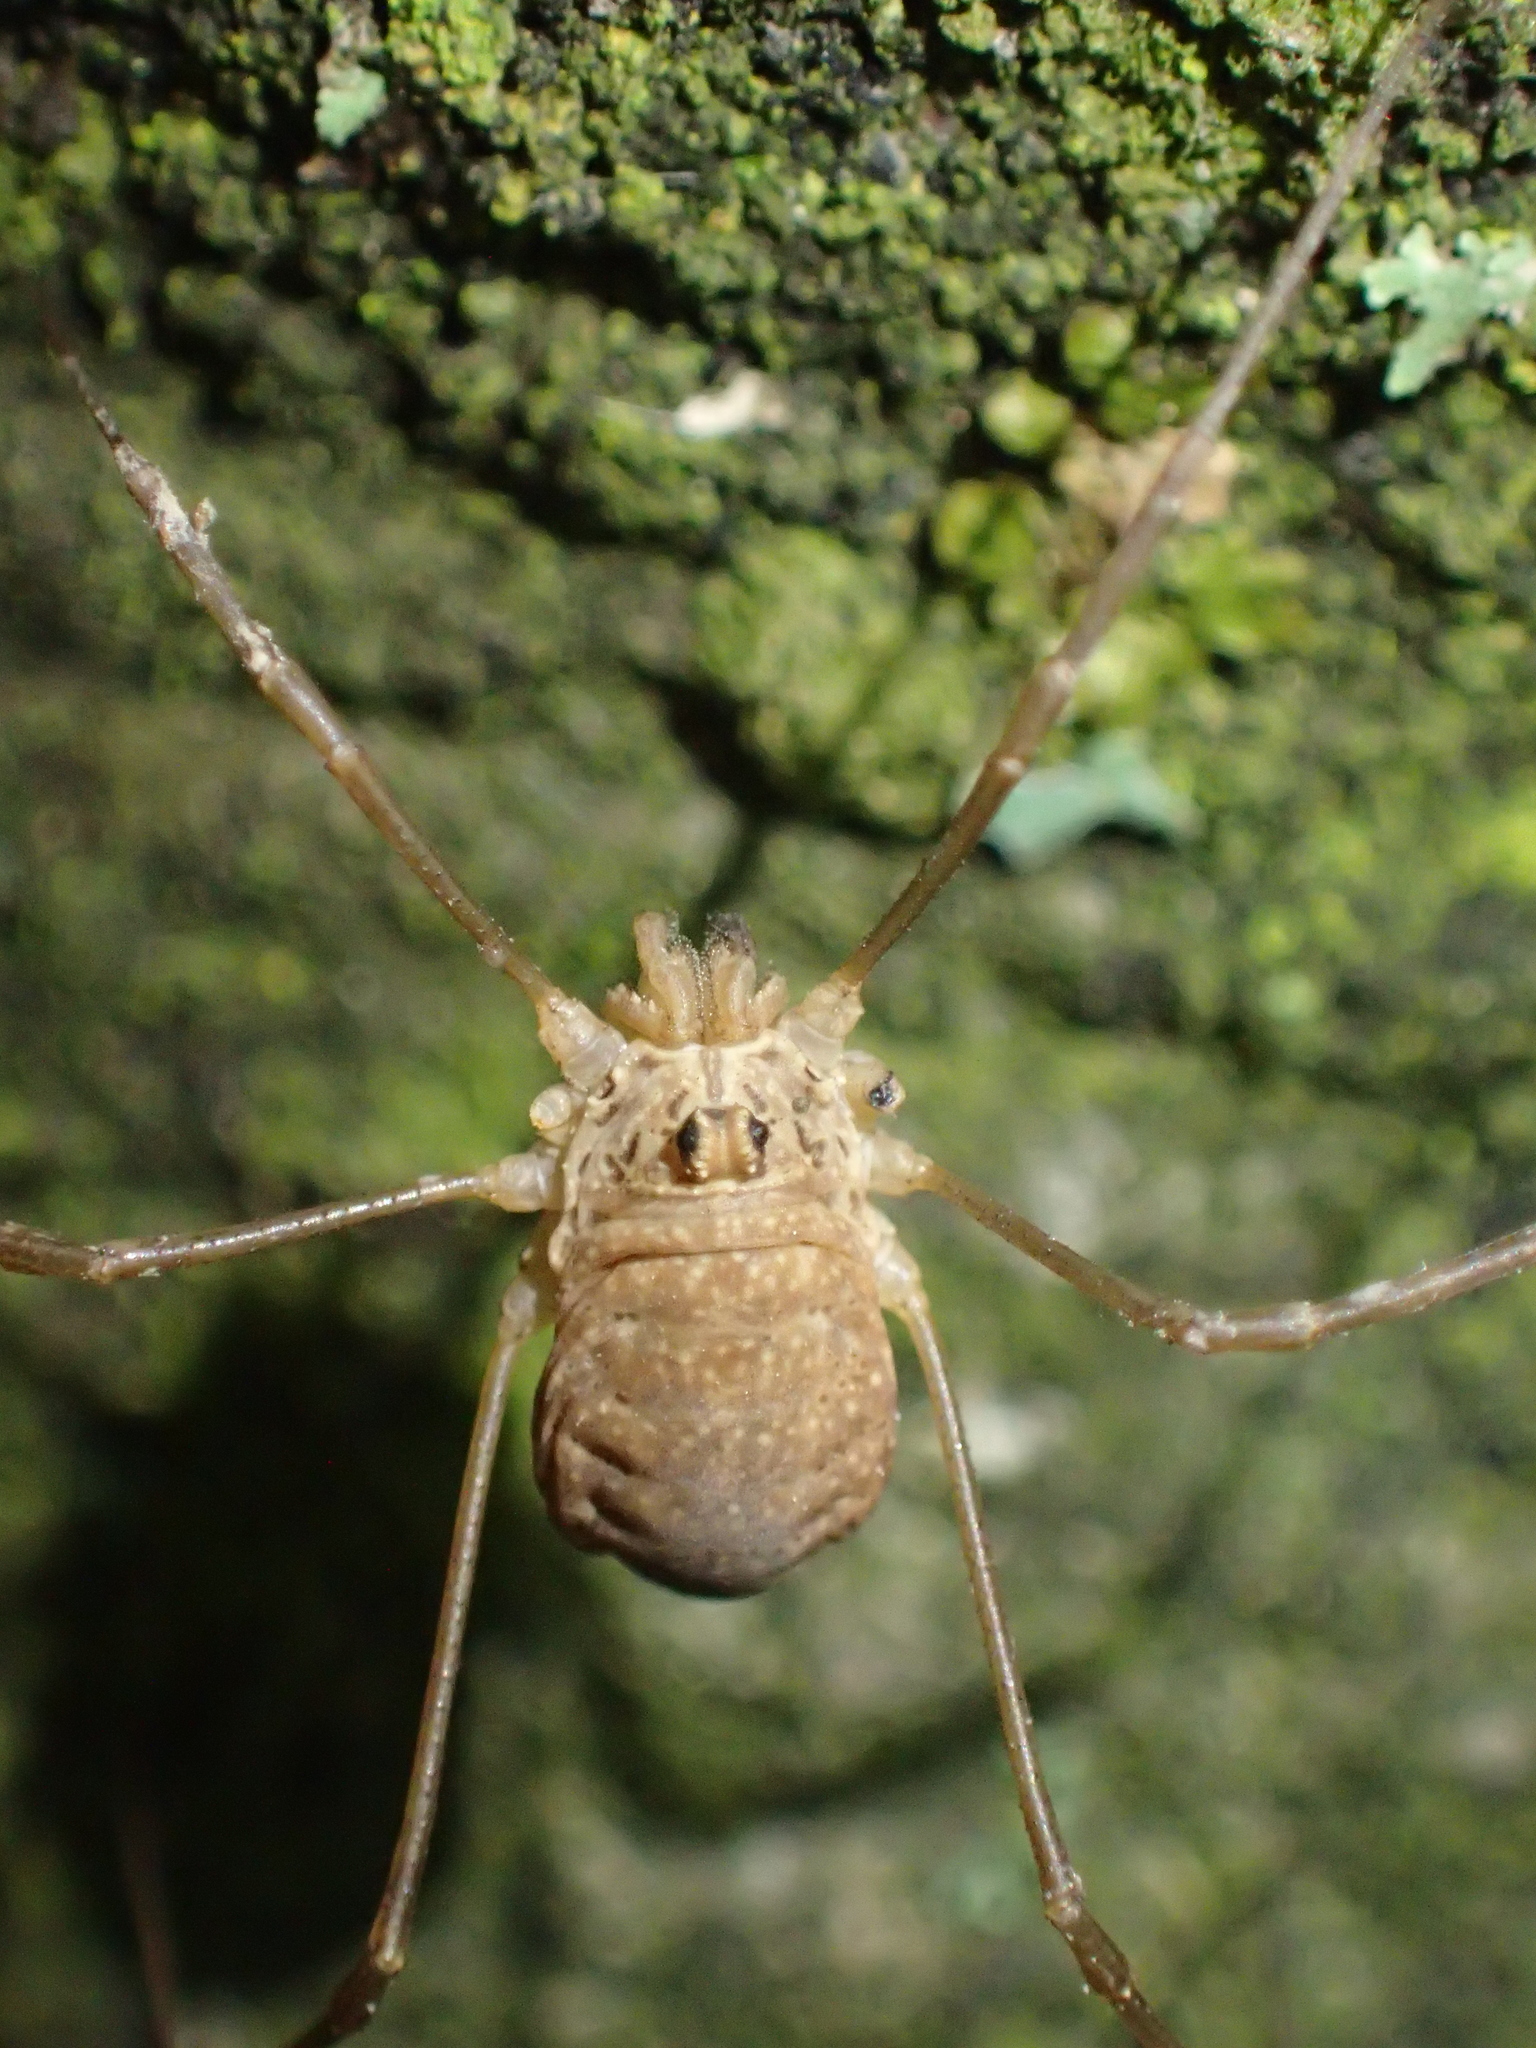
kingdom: Animalia
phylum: Arthropoda
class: Arachnida
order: Opiliones
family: Phalangiidae
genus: Rilaena
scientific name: Rilaena triangularis
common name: Spring harvestman
